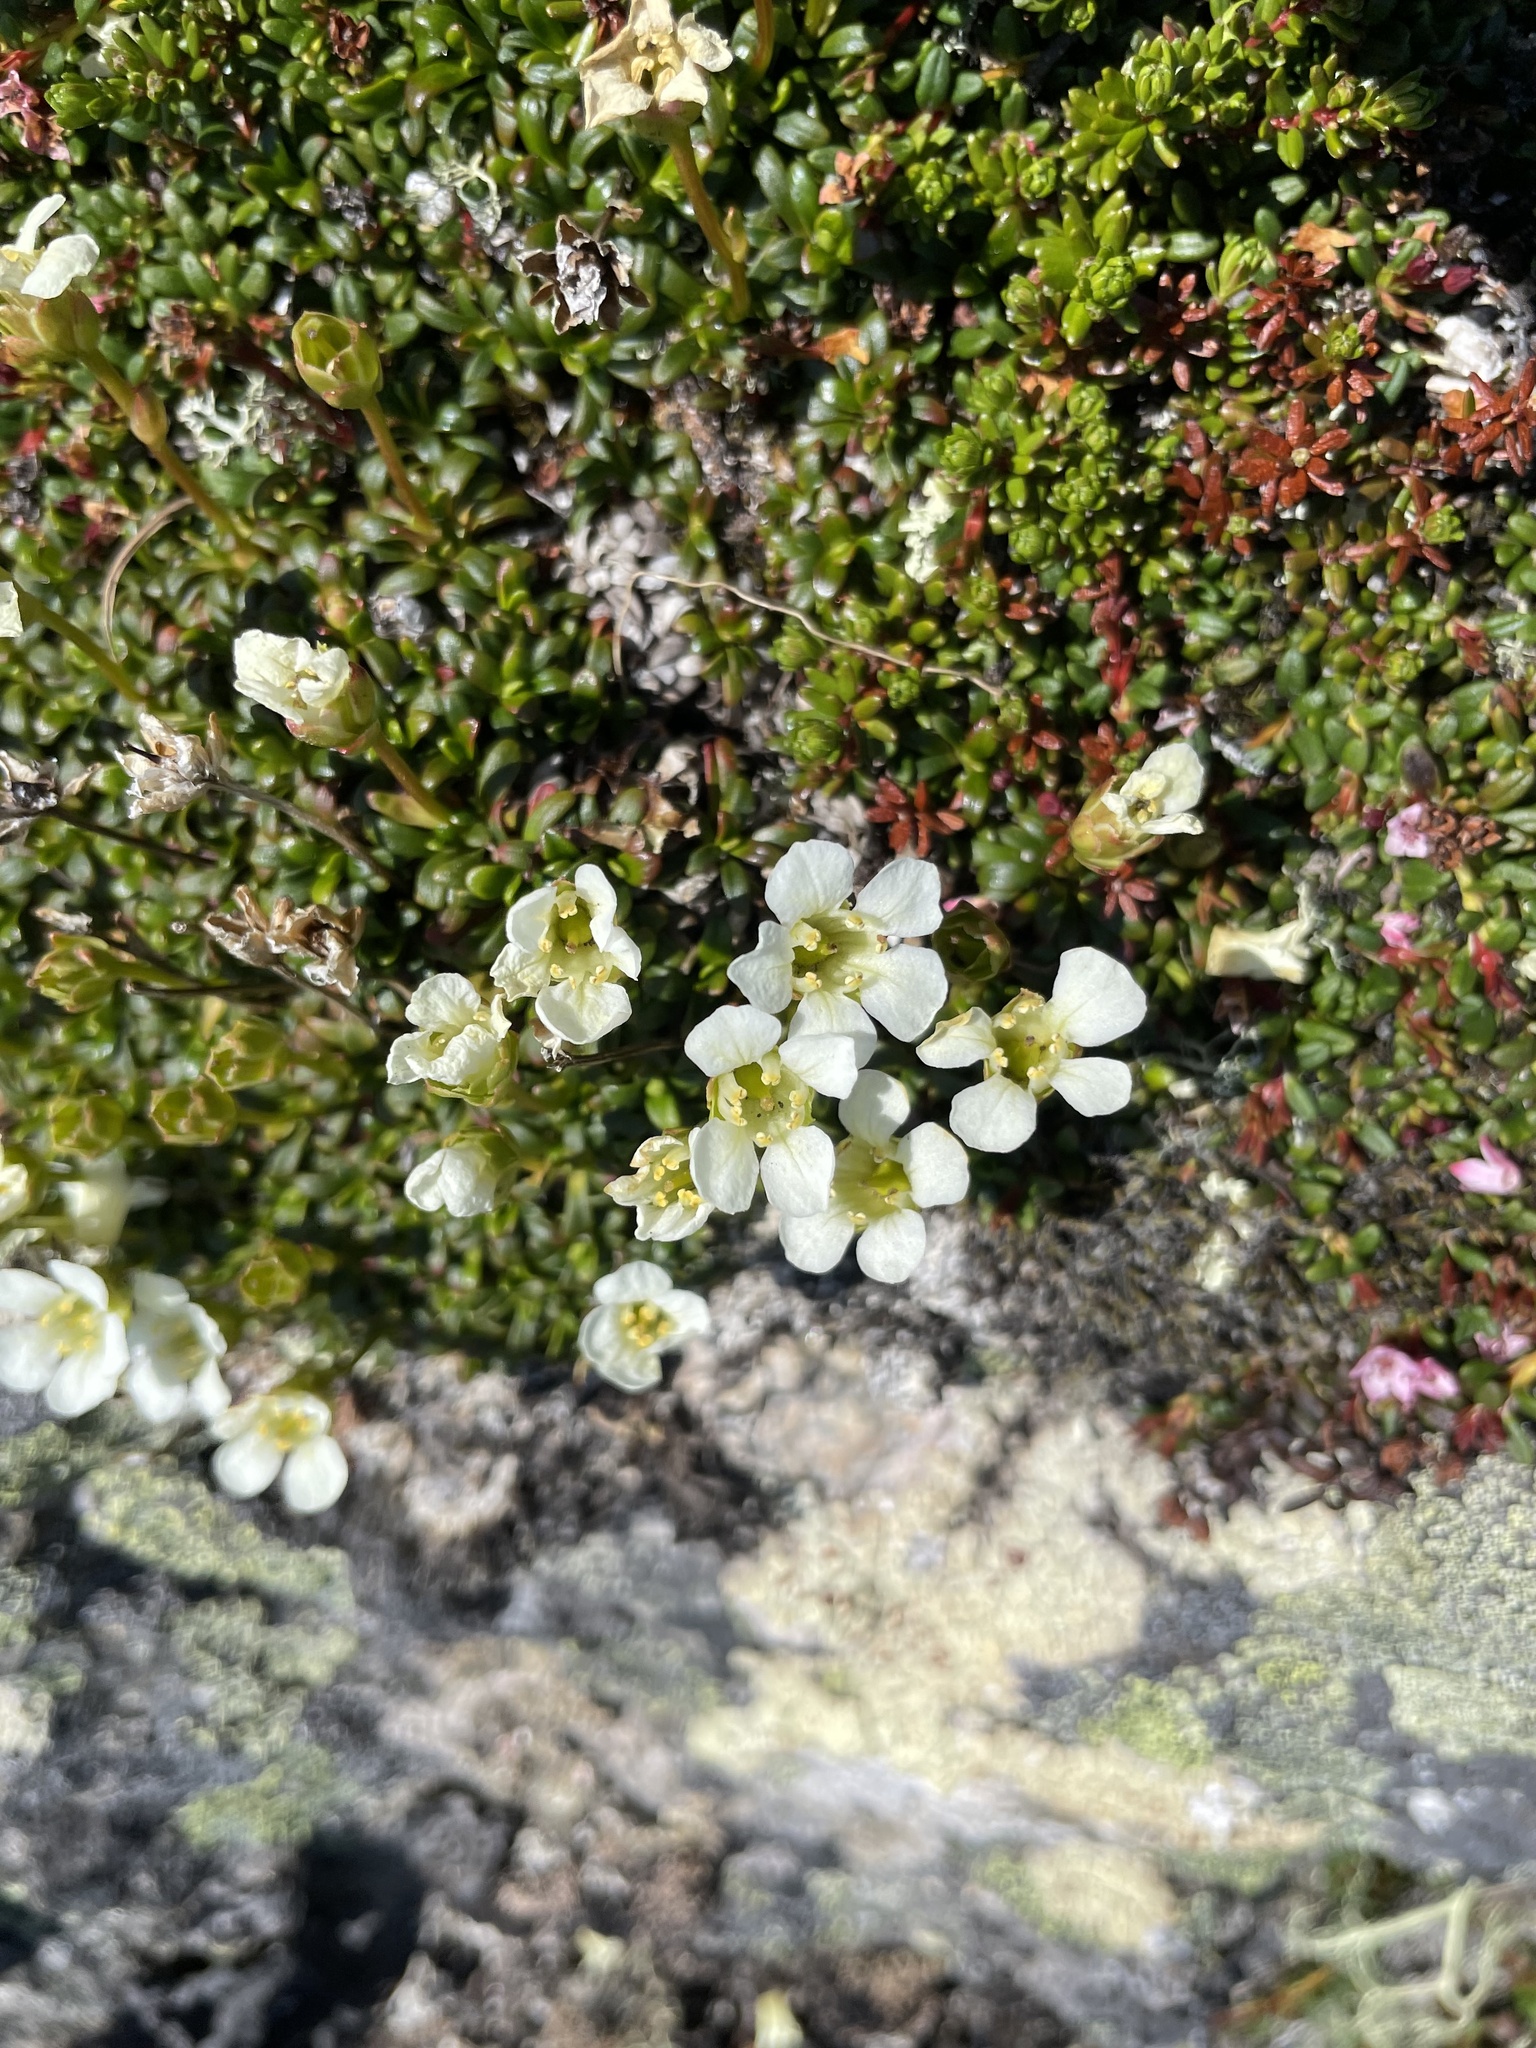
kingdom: Plantae
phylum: Tracheophyta
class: Magnoliopsida
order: Ericales
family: Diapensiaceae
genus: Diapensia
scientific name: Diapensia lapponica
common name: Diapensia
